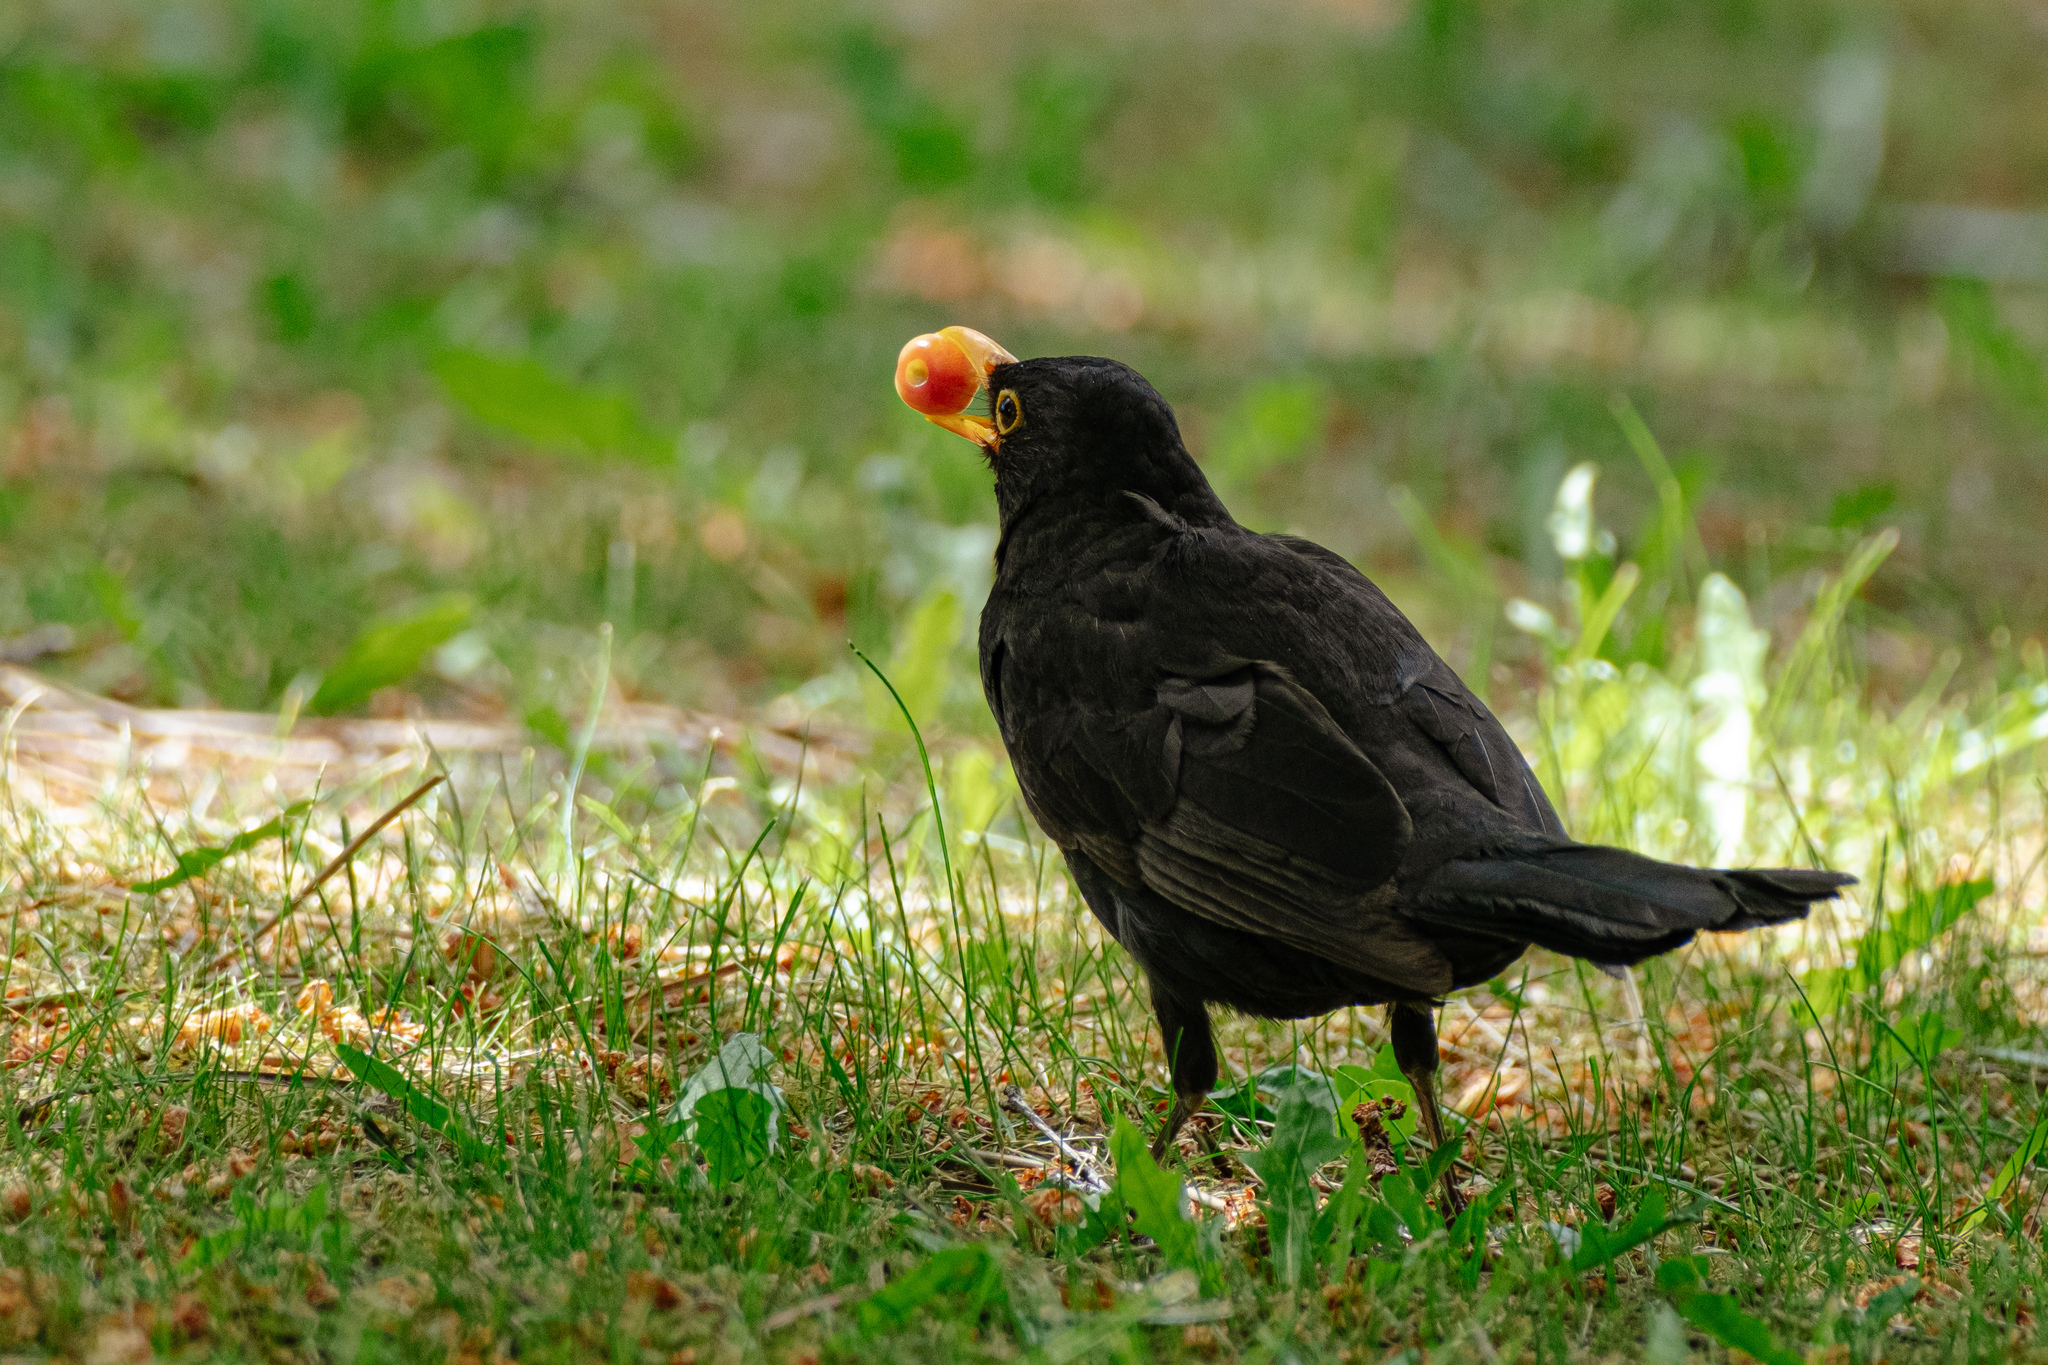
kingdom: Animalia
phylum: Chordata
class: Aves
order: Passeriformes
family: Turdidae
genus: Turdus
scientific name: Turdus merula
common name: Common blackbird
